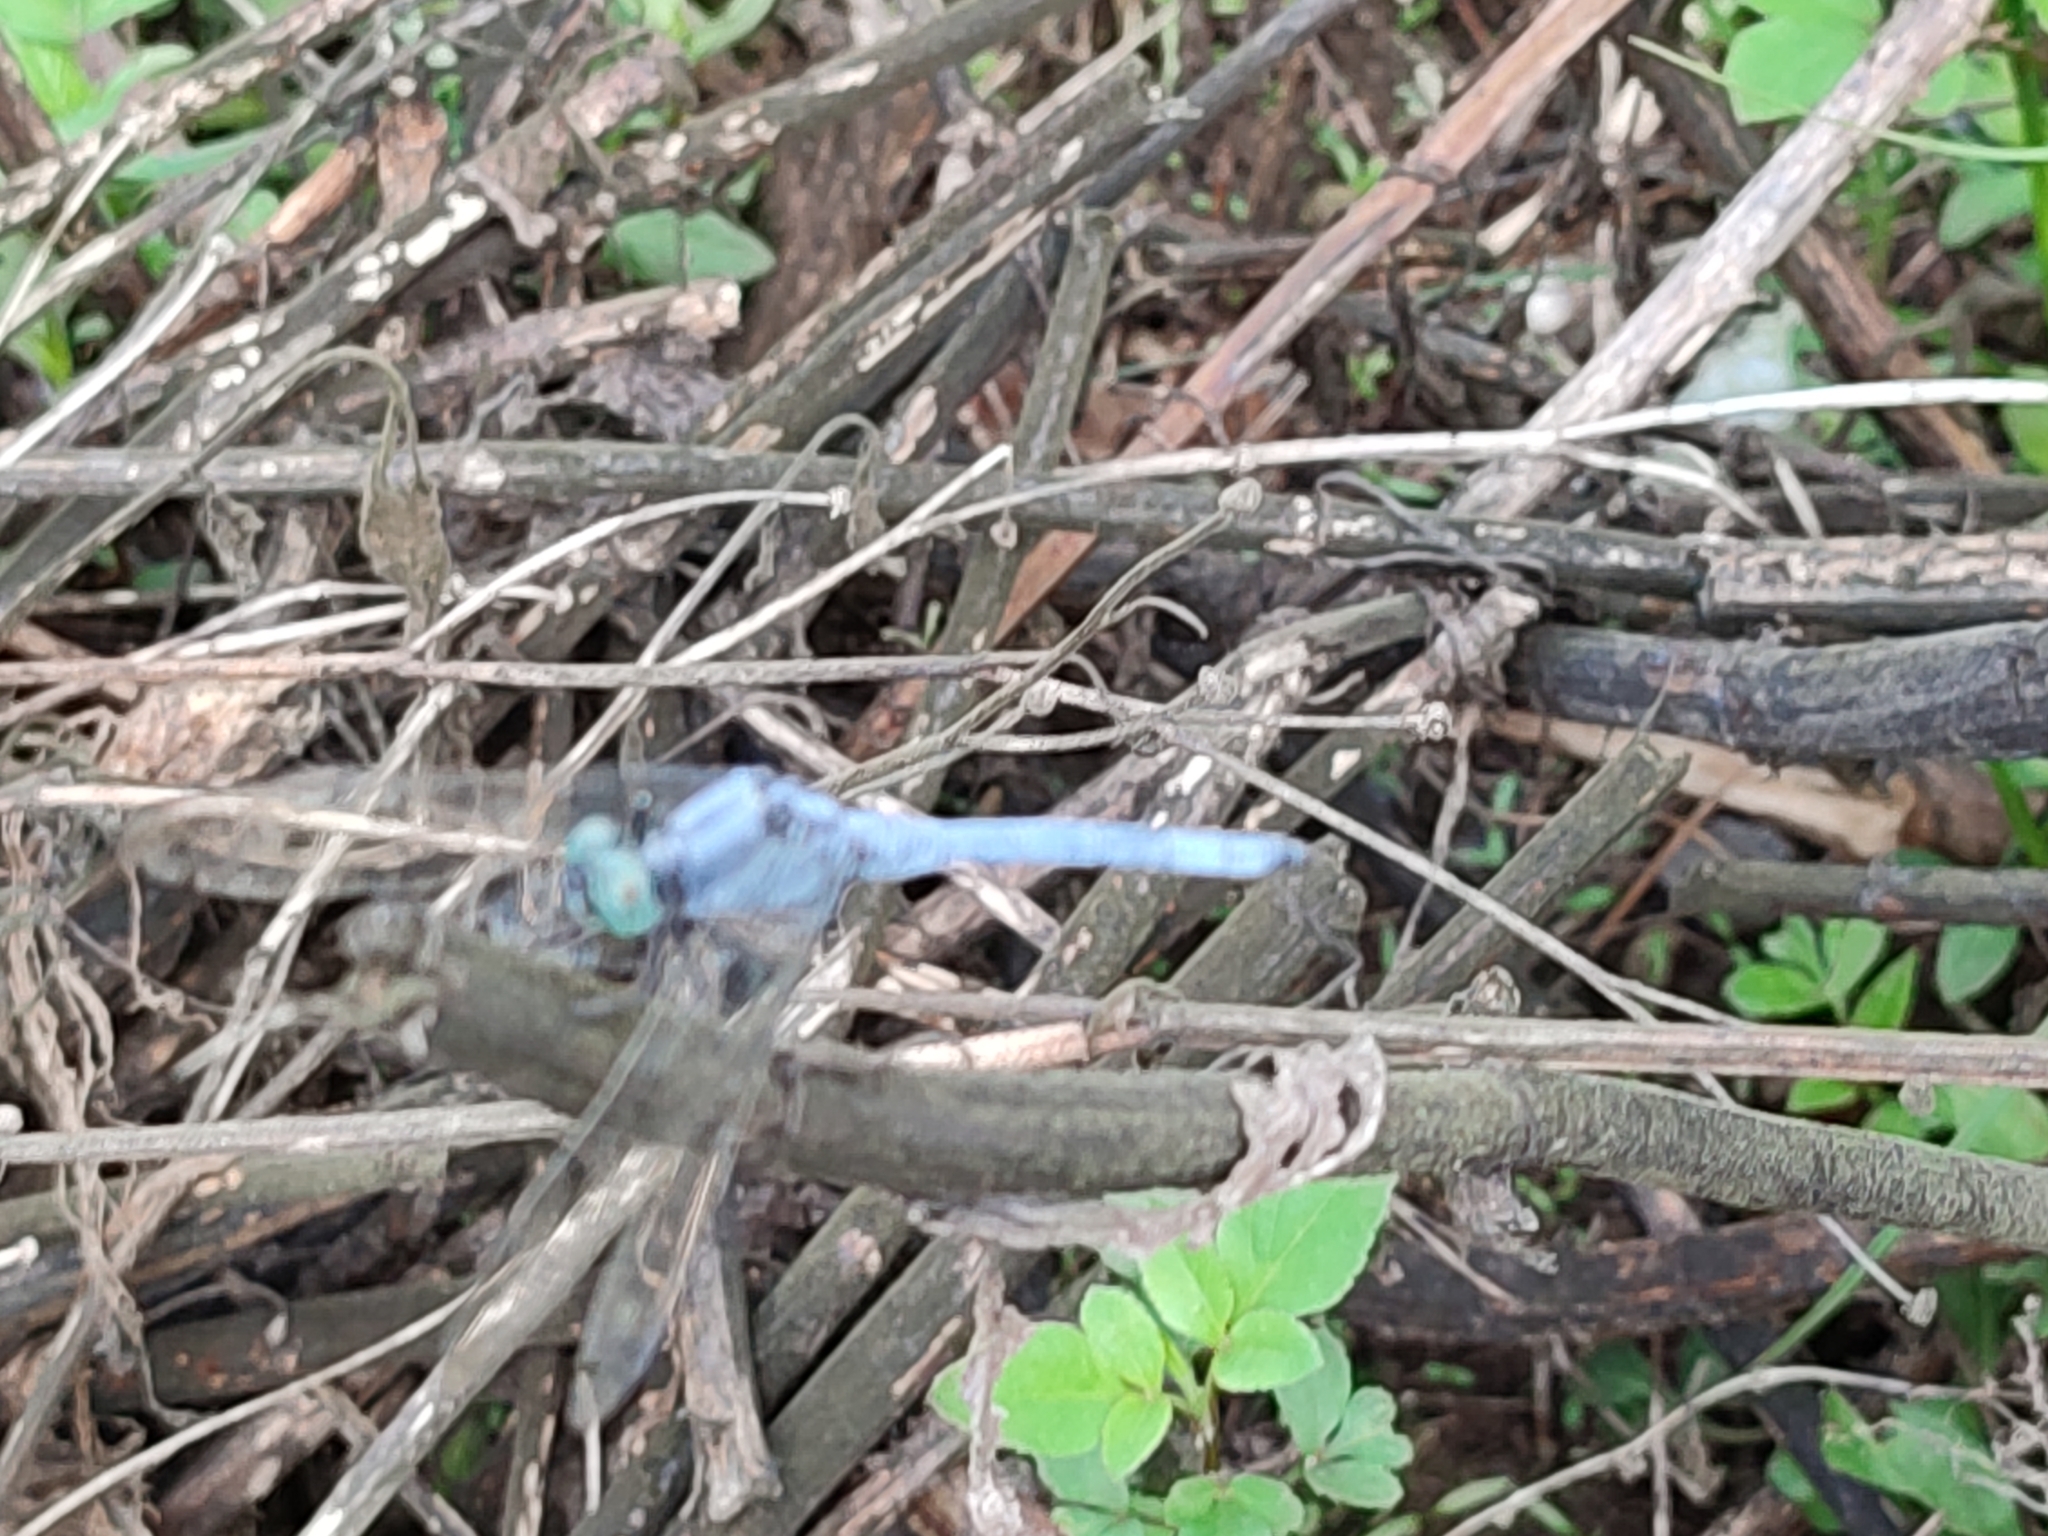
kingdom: Animalia
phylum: Arthropoda
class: Insecta
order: Odonata
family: Libellulidae
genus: Orthetrum
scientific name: Orthetrum luzonicum
